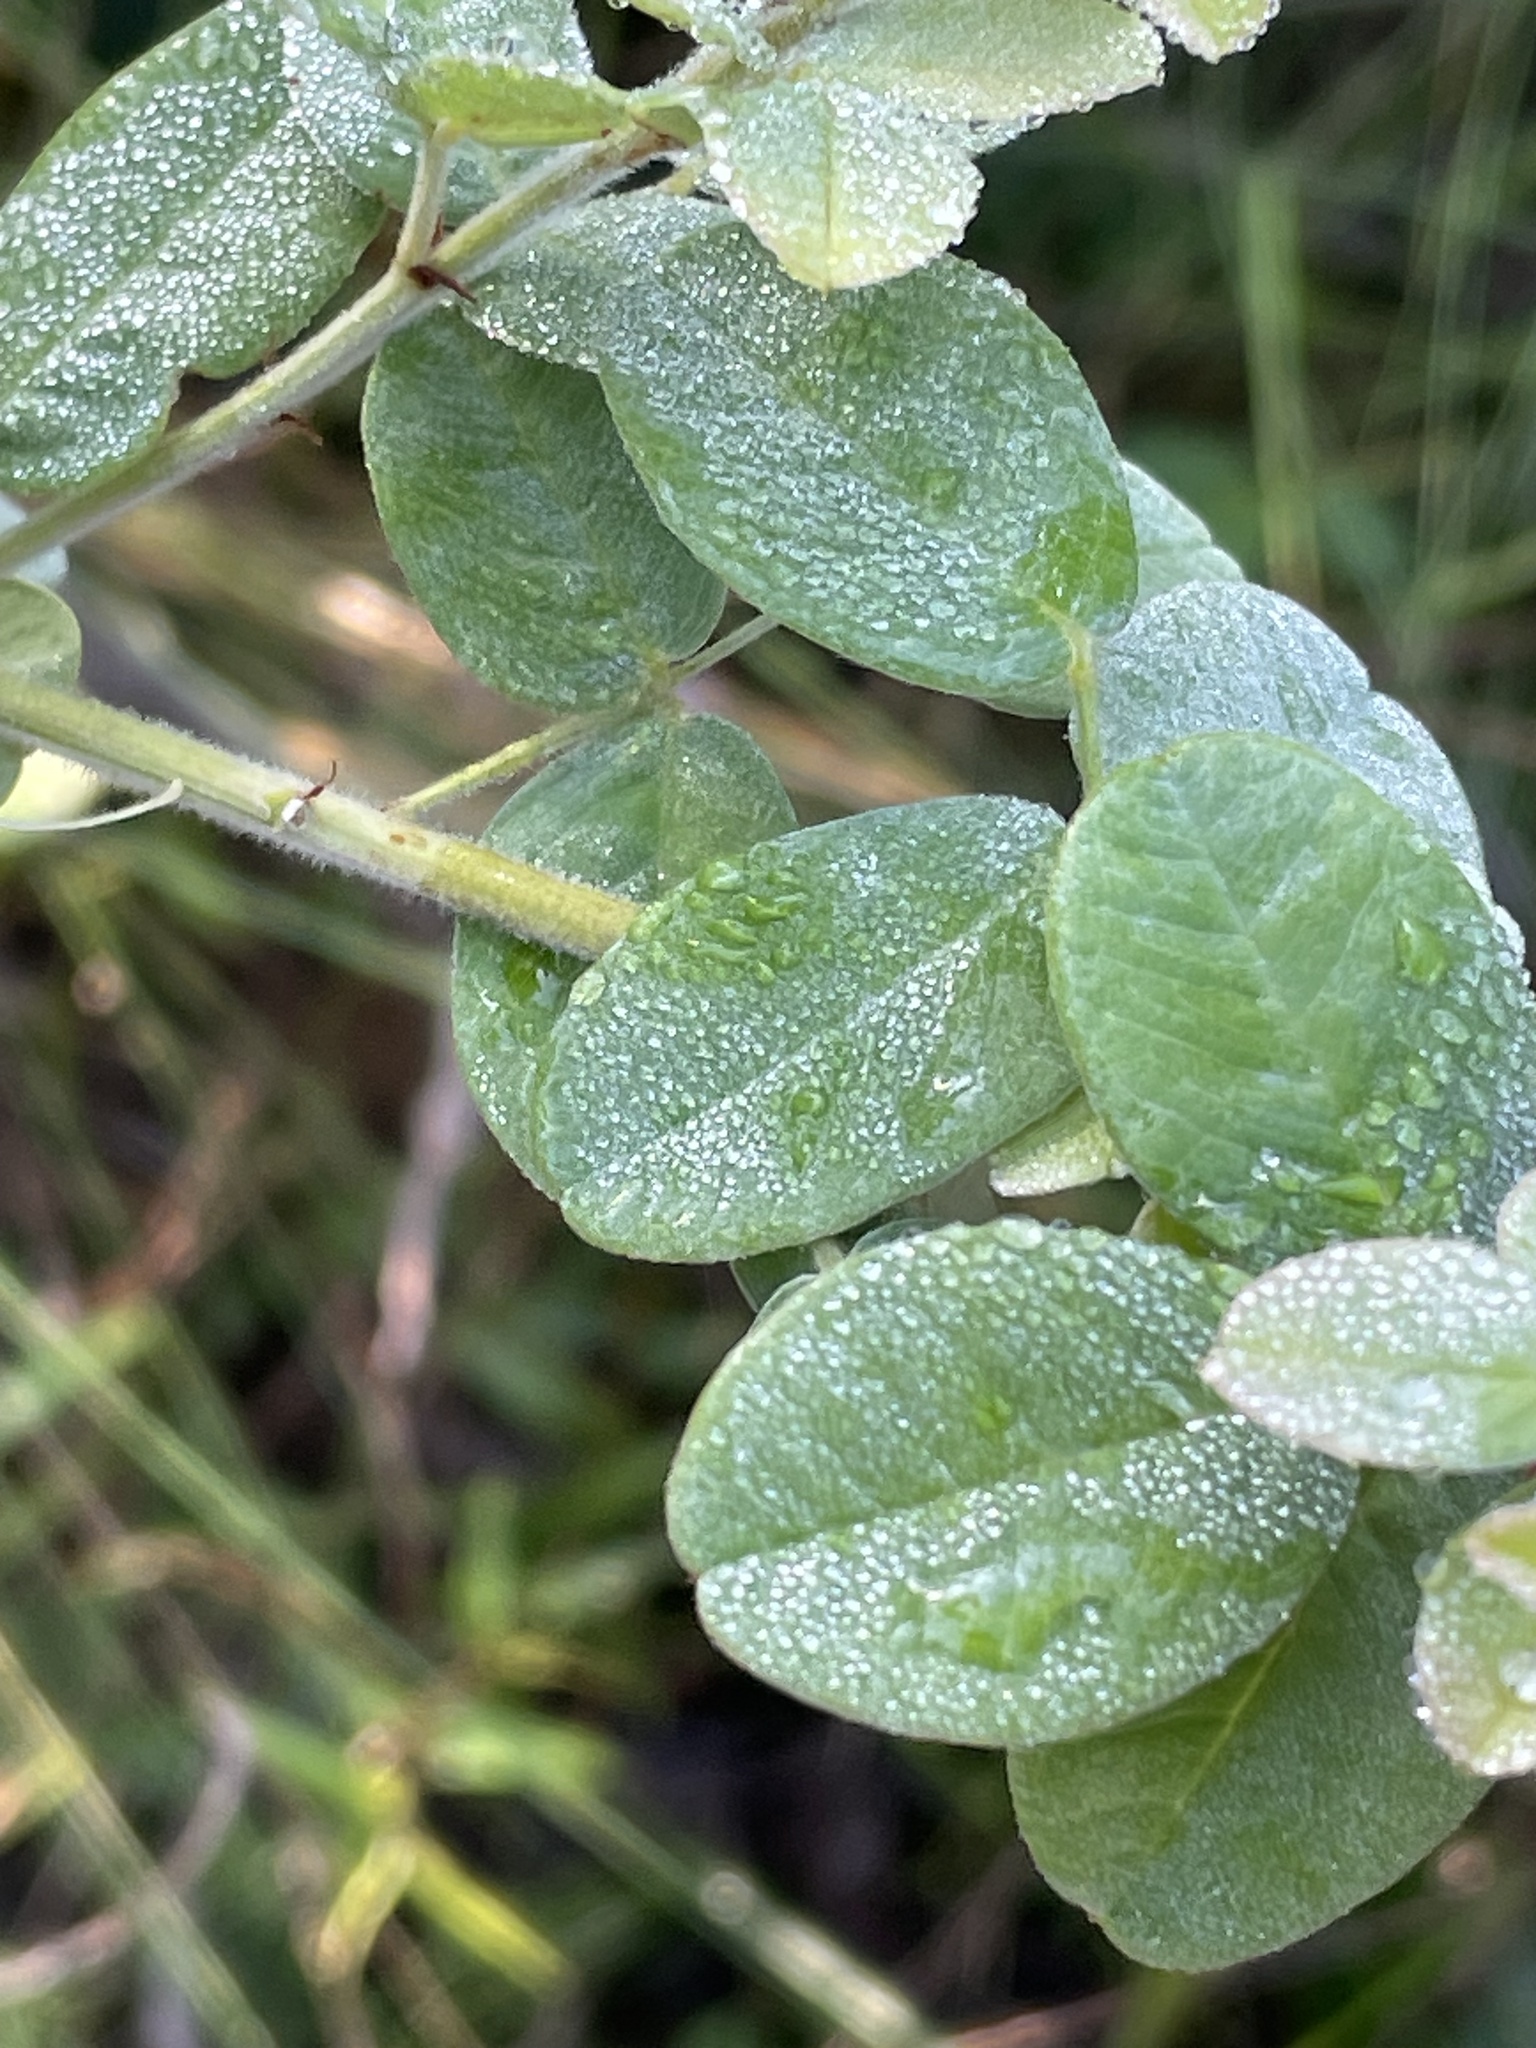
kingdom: Plantae
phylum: Tracheophyta
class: Magnoliopsida
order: Fabales
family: Fabaceae
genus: Lespedeza
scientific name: Lespedeza hirta
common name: Hairy lespedeza
